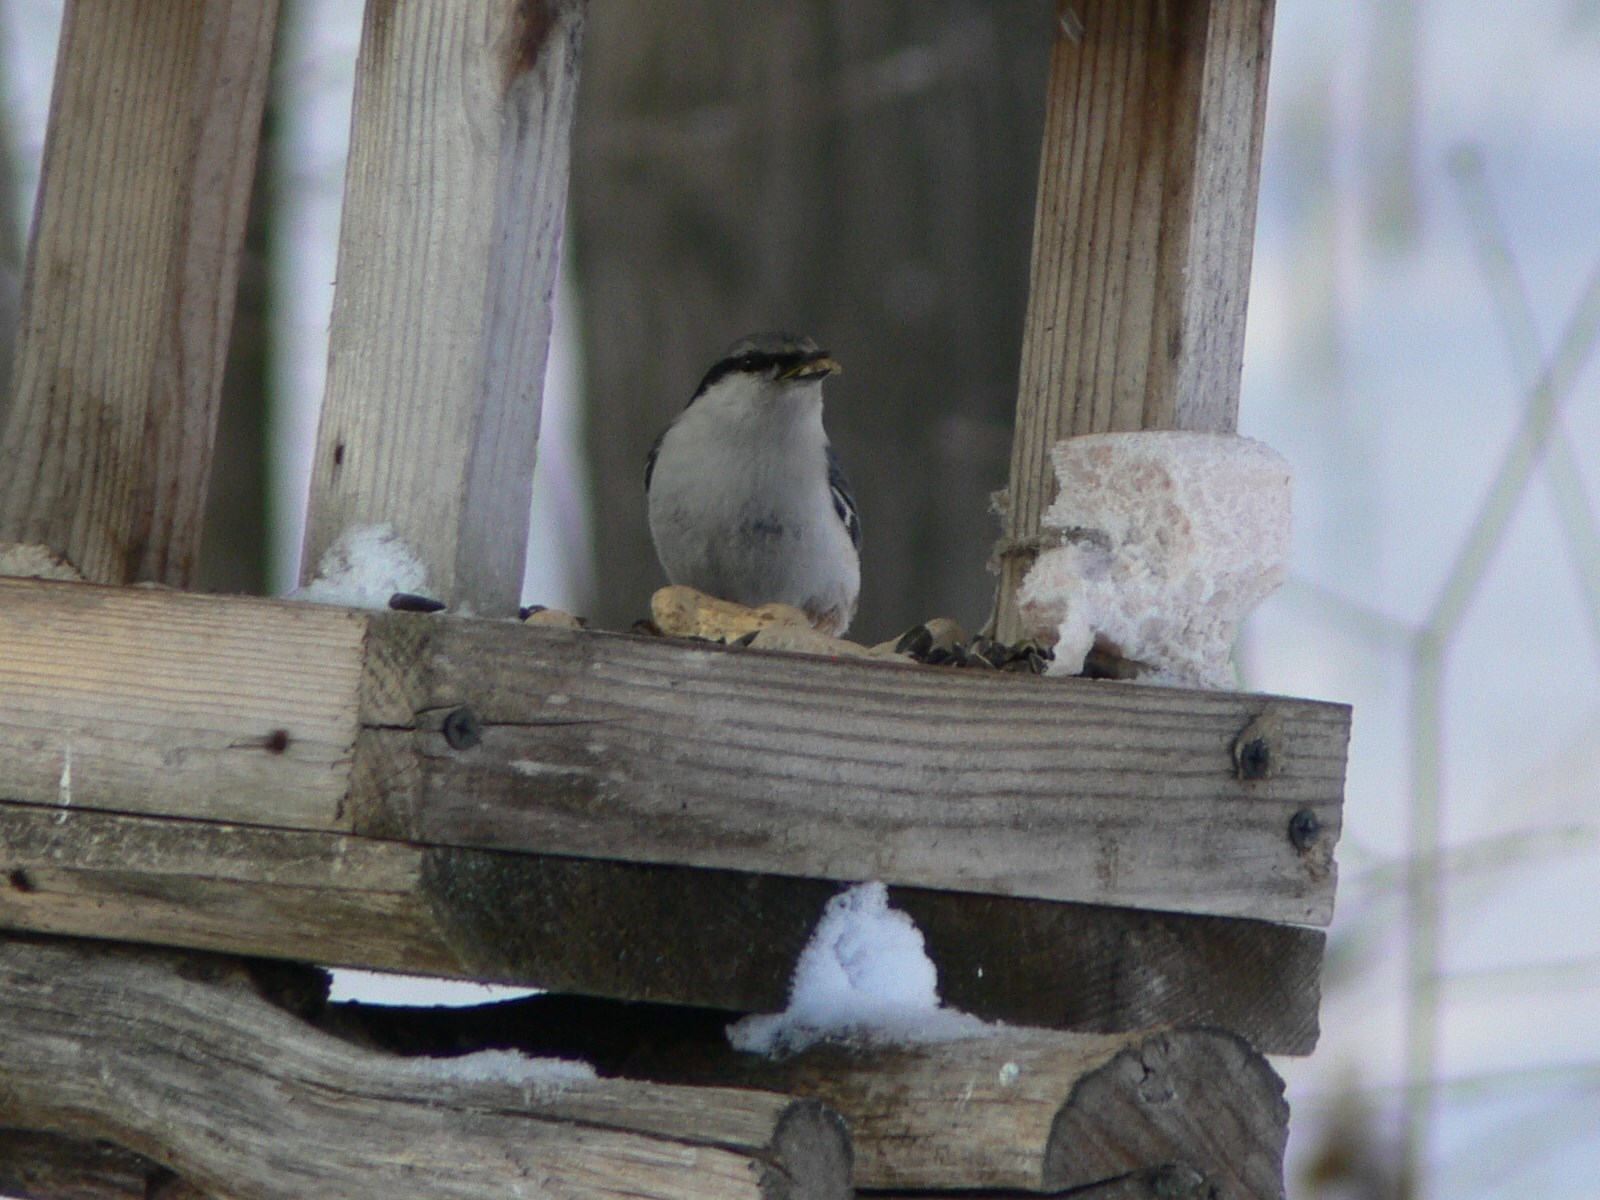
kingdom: Animalia
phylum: Chordata
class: Aves
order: Passeriformes
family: Sittidae
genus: Sitta
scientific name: Sitta europaea
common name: Eurasian nuthatch
